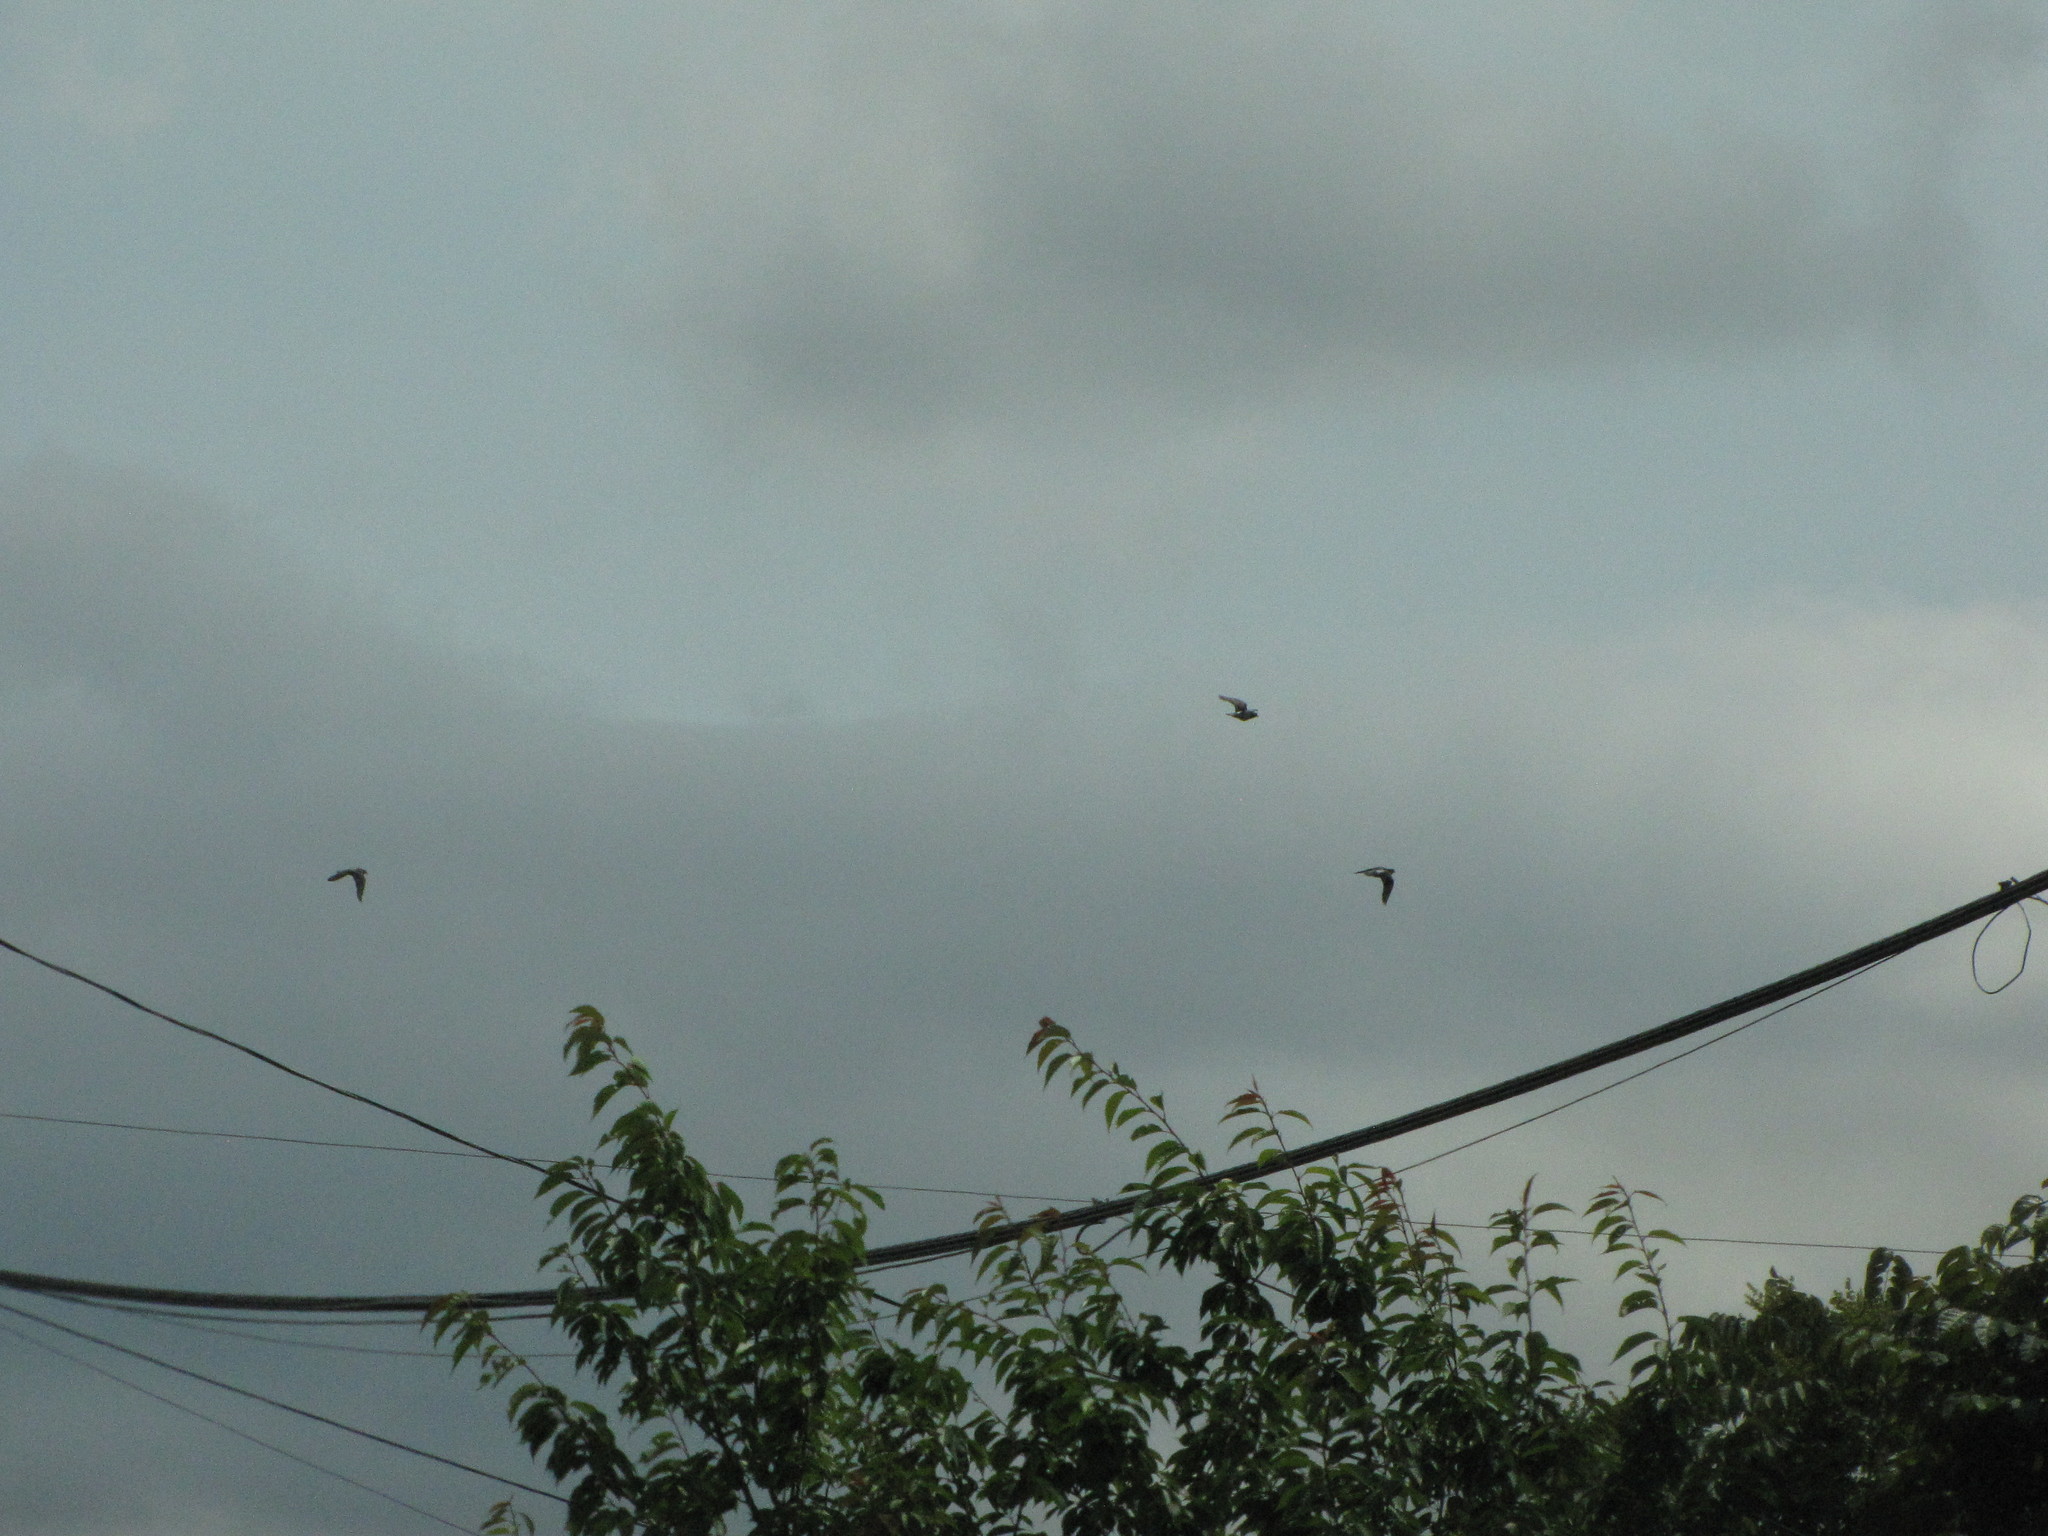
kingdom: Animalia
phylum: Chordata
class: Aves
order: Columbiformes
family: Columbidae
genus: Columba
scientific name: Columba livia
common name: Rock pigeon
